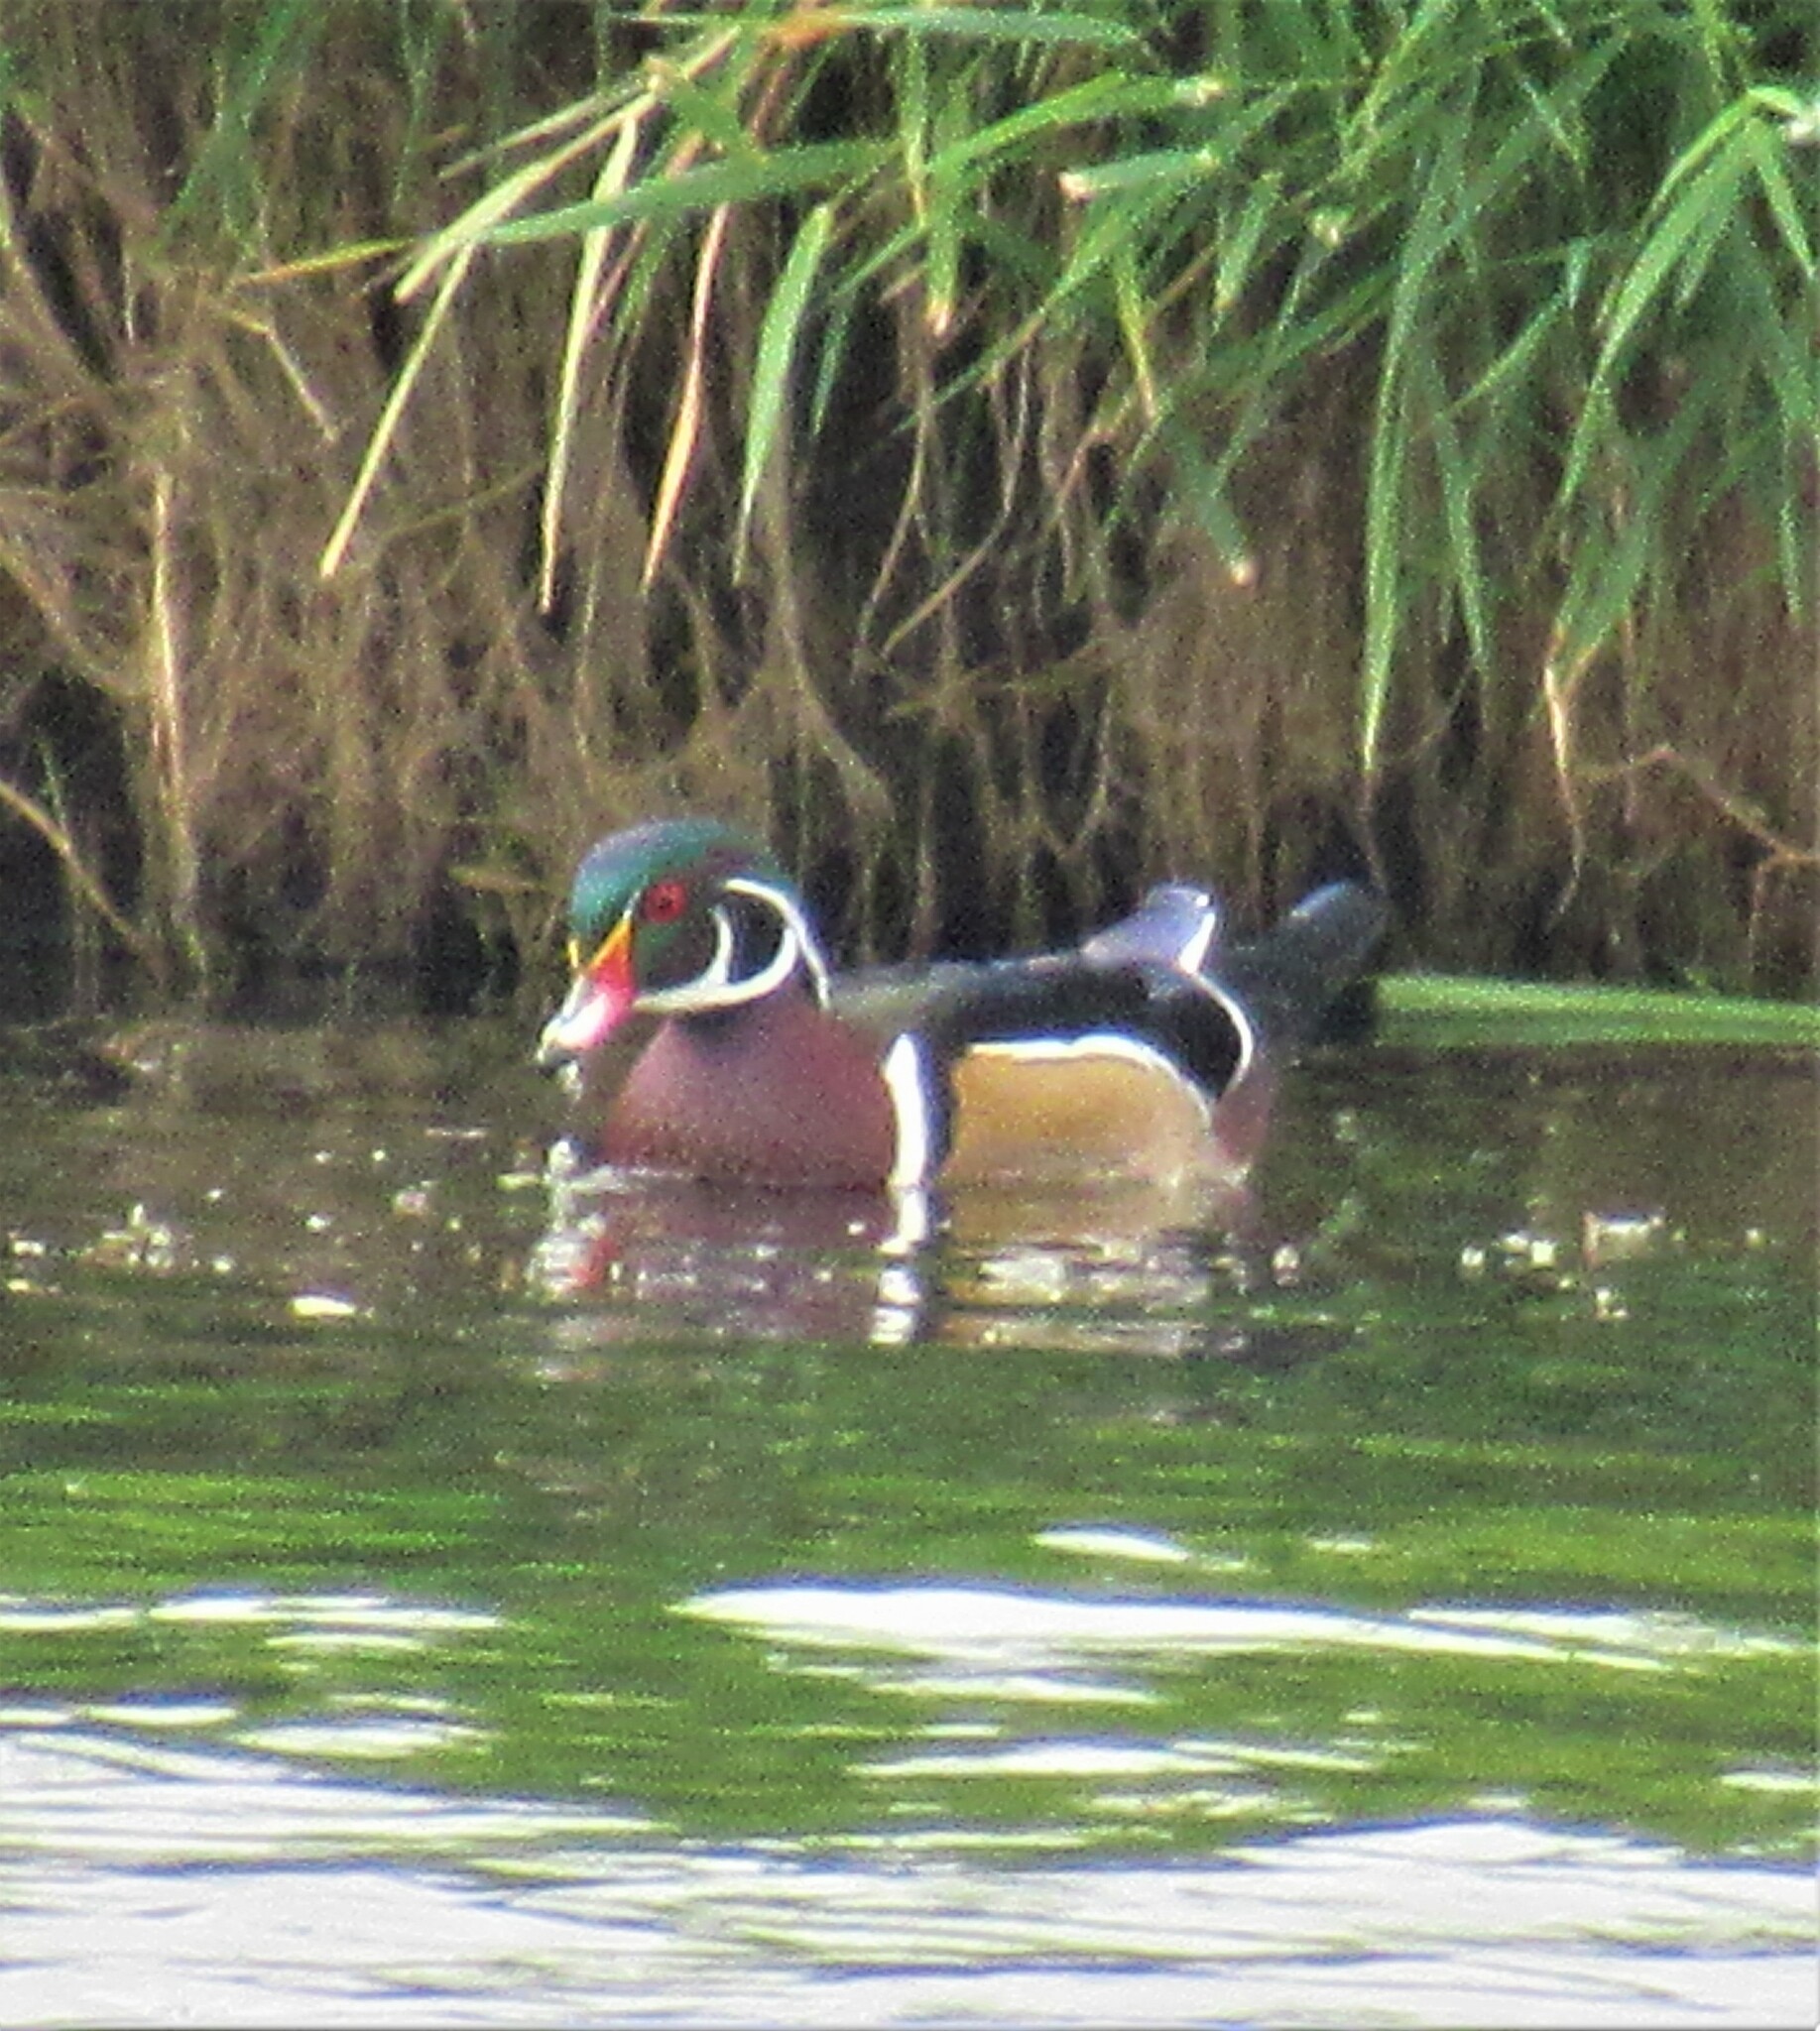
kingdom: Animalia
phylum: Chordata
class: Aves
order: Anseriformes
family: Anatidae
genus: Aix
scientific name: Aix sponsa
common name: Wood duck
